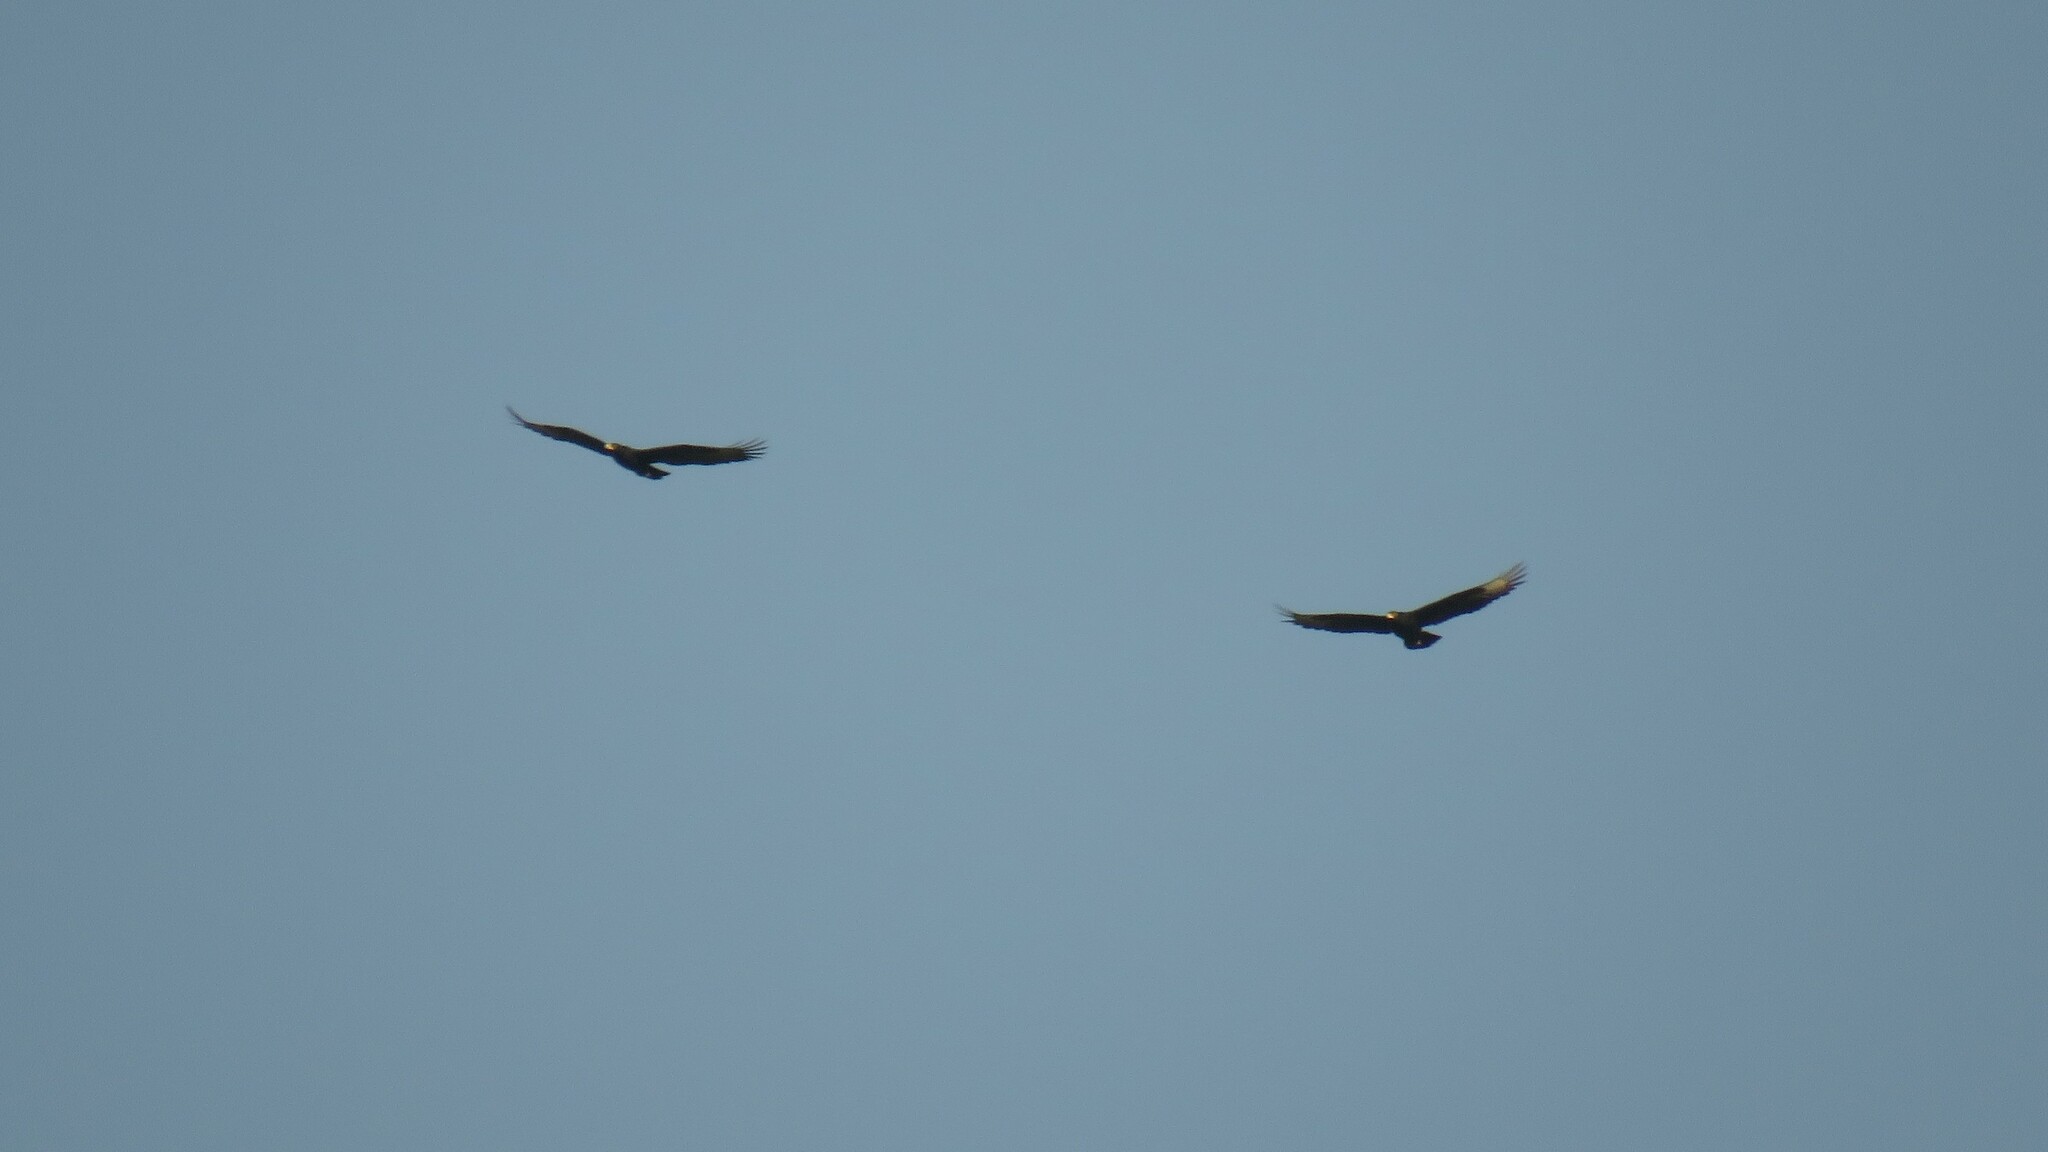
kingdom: Animalia
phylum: Chordata
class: Aves
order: Accipitriformes
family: Accipitridae
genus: Aquila
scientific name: Aquila verreauxii
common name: Verreaux's eagle
